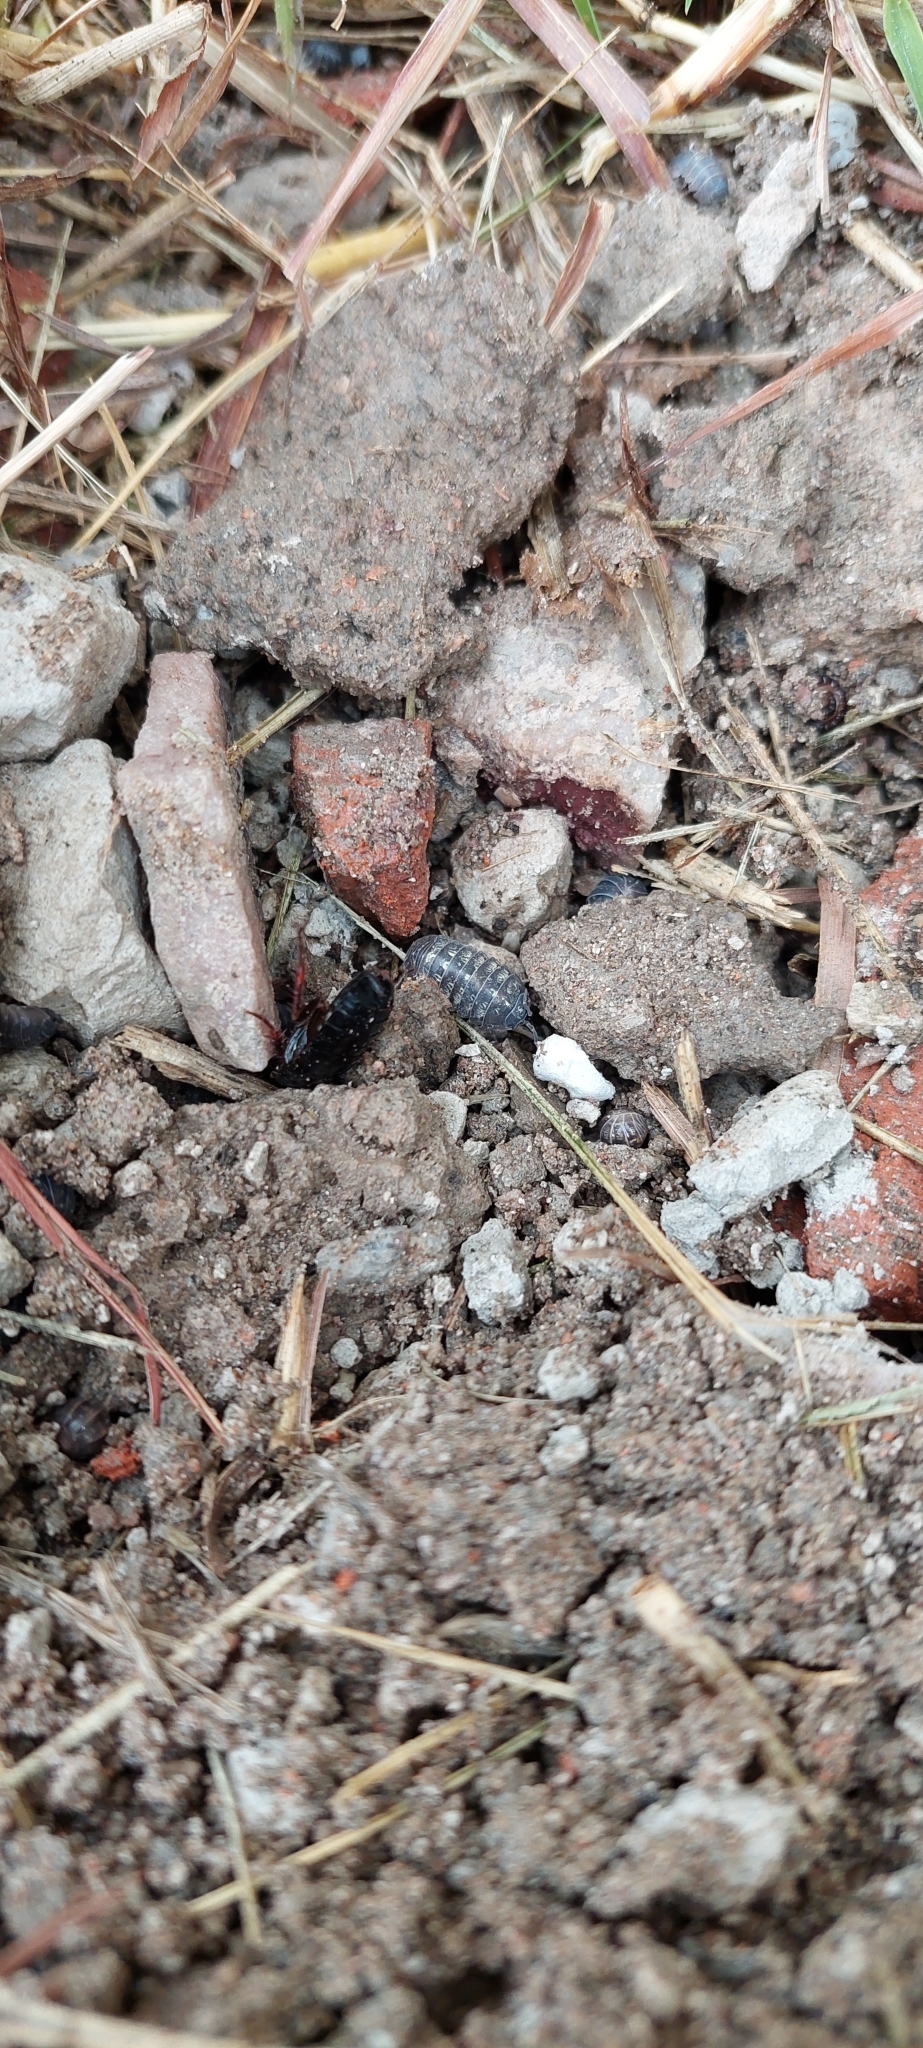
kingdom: Animalia
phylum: Arthropoda
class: Malacostraca
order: Isopoda
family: Armadillidiidae
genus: Armadillidium
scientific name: Armadillidium vulgare
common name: Common pill woodlouse
